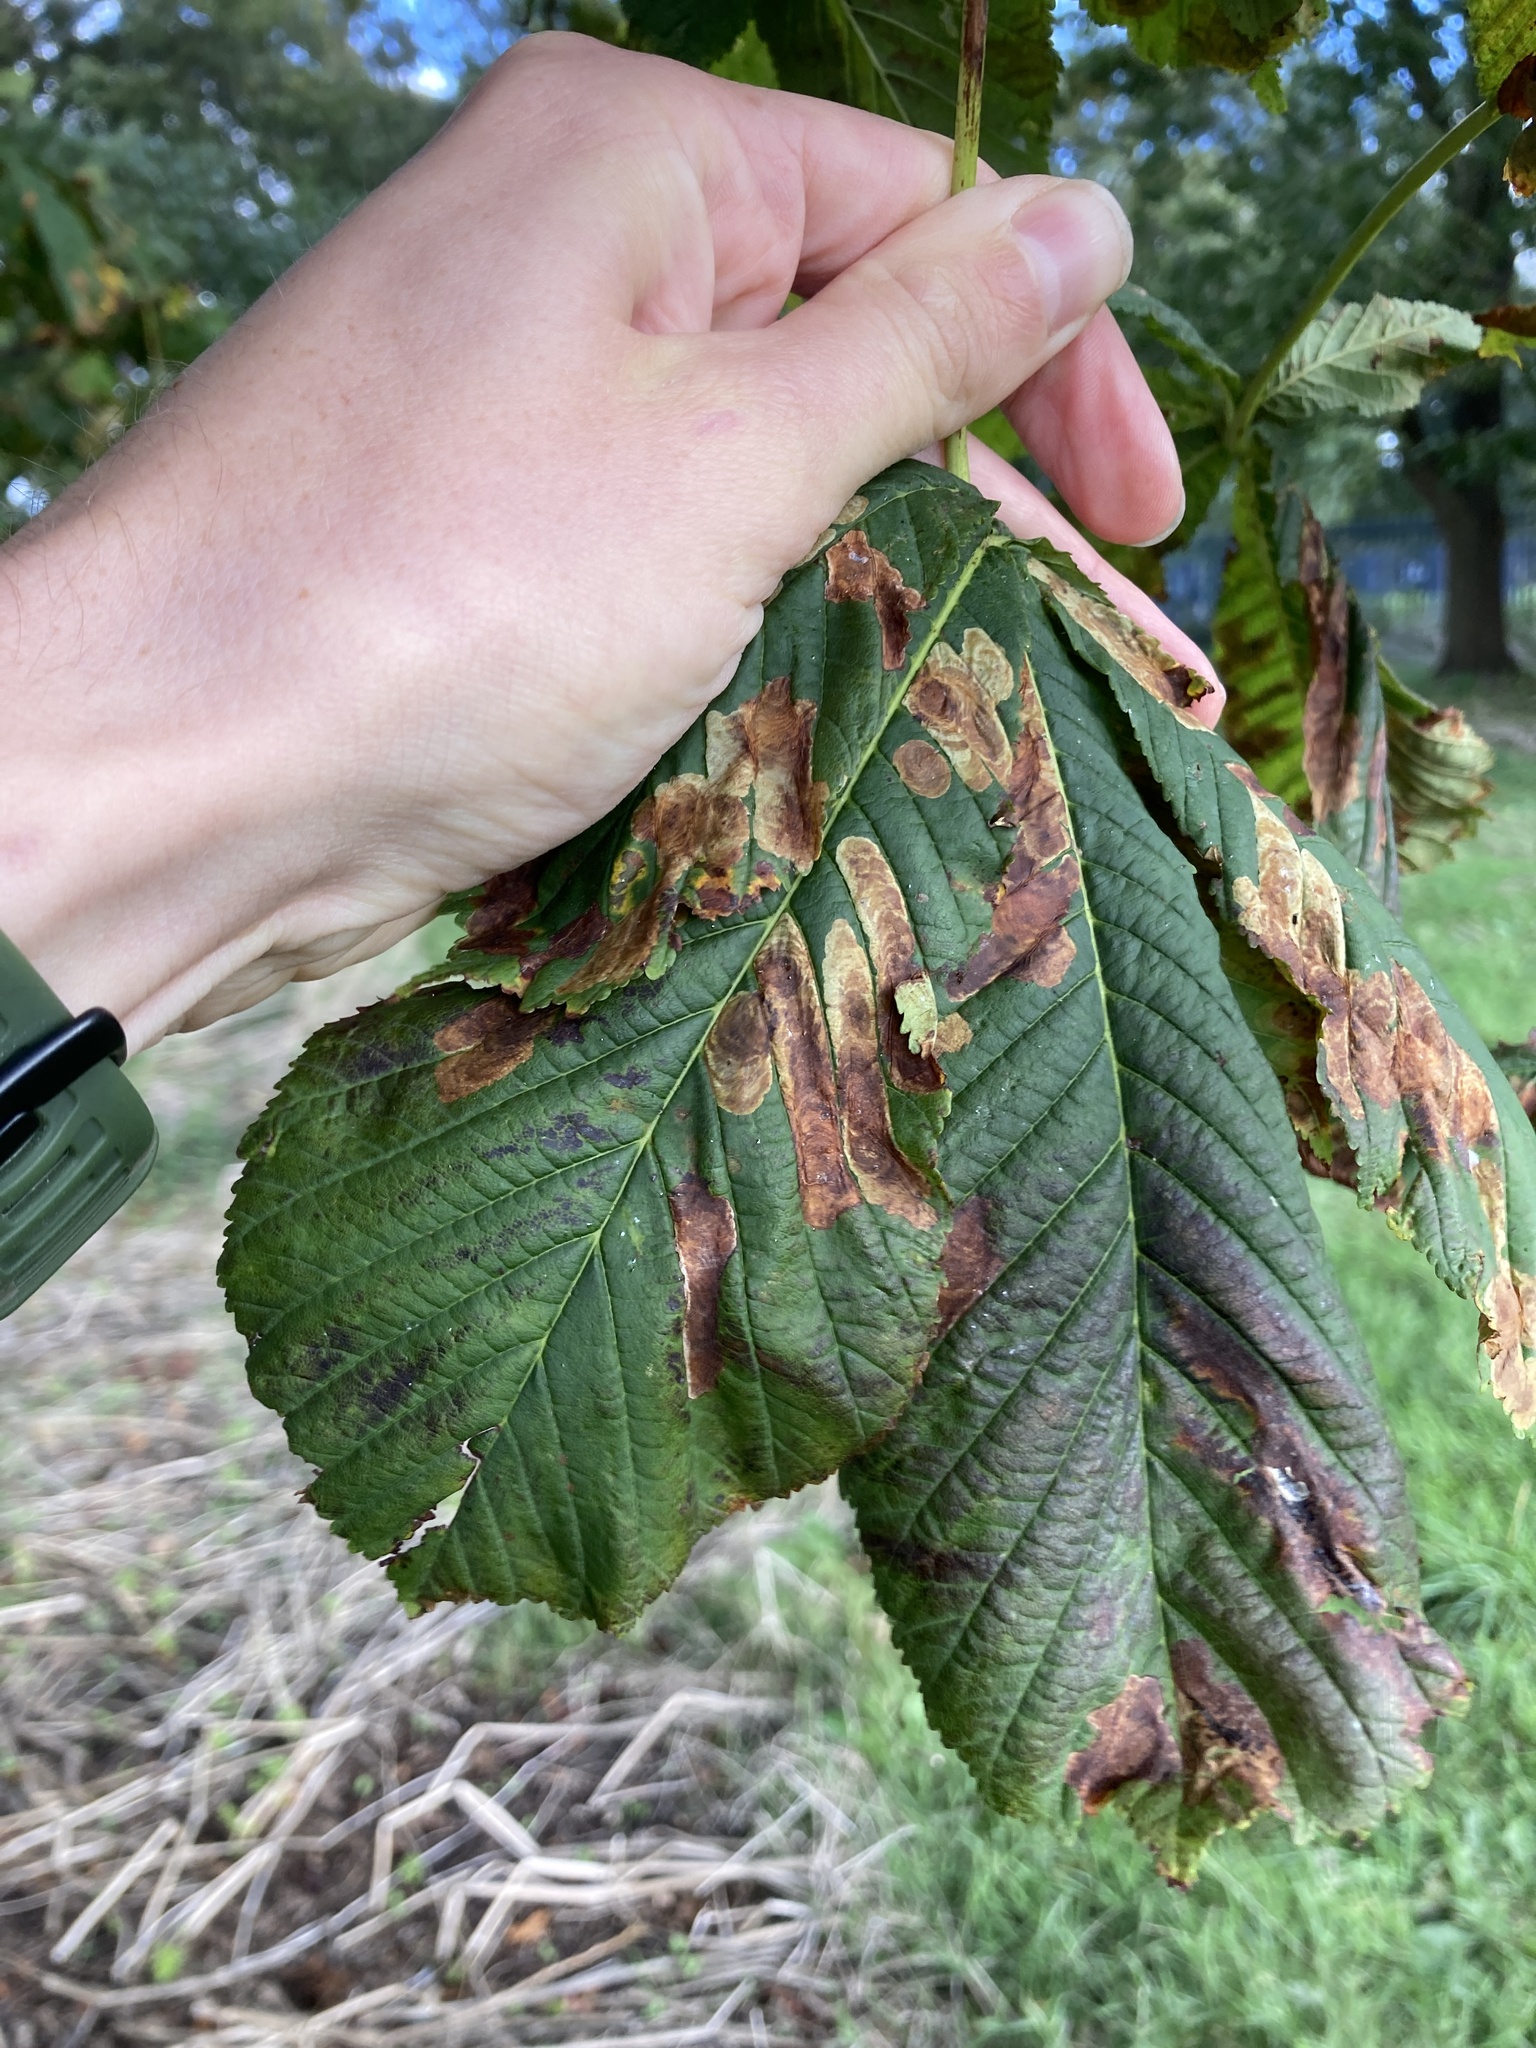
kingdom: Animalia
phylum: Arthropoda
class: Insecta
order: Lepidoptera
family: Gracillariidae
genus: Cameraria
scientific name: Cameraria ohridella
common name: Horse-chestnut leaf-miner
